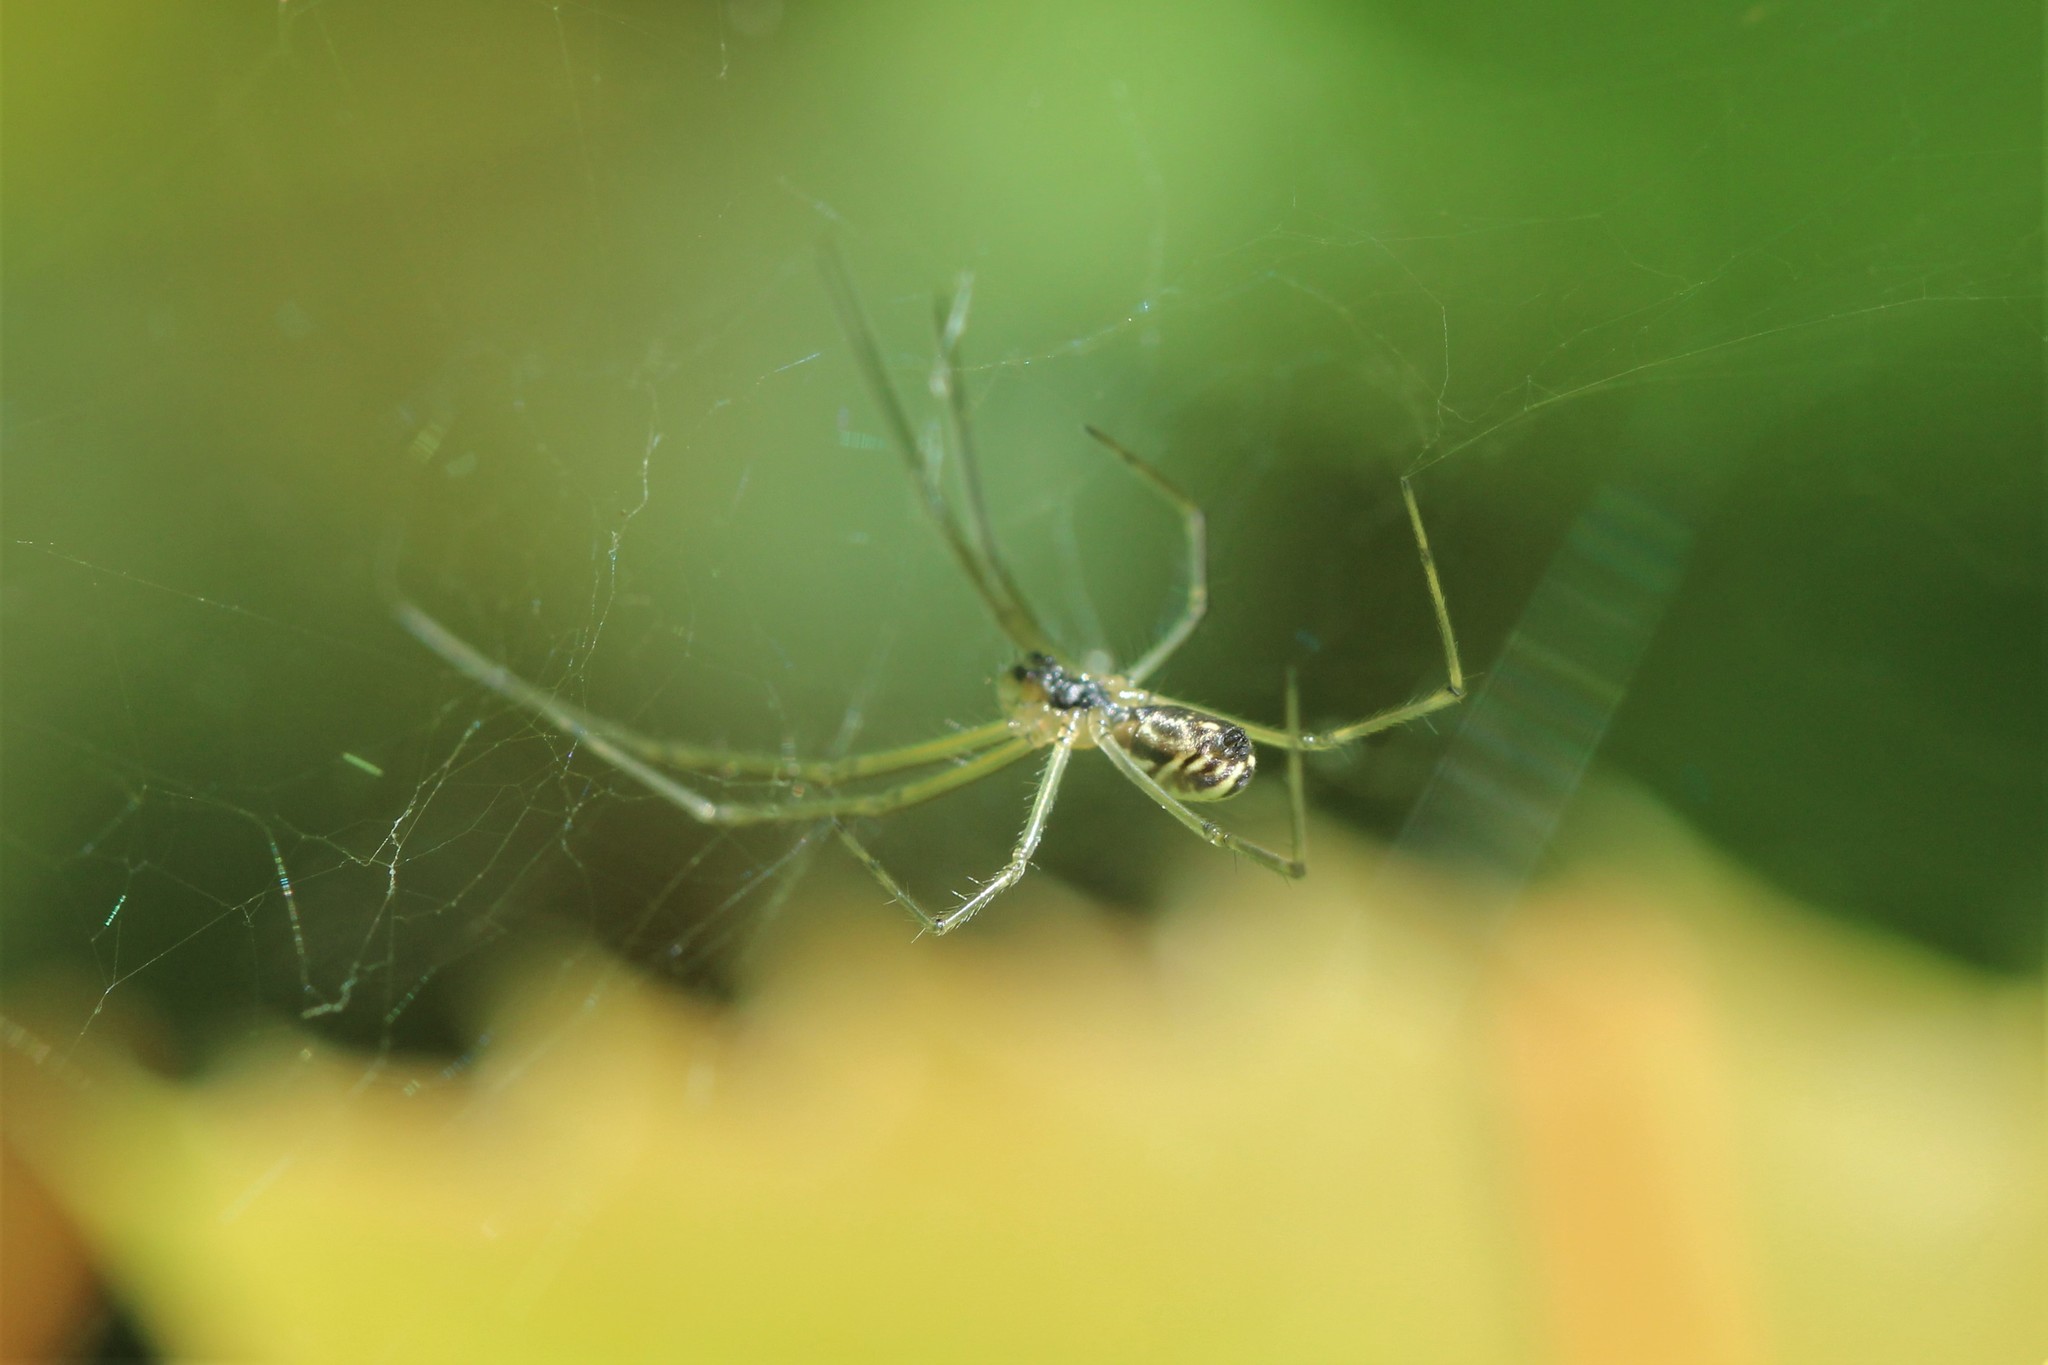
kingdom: Animalia
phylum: Arthropoda
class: Arachnida
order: Araneae
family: Linyphiidae
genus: Neriene
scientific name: Neriene litigiosa
